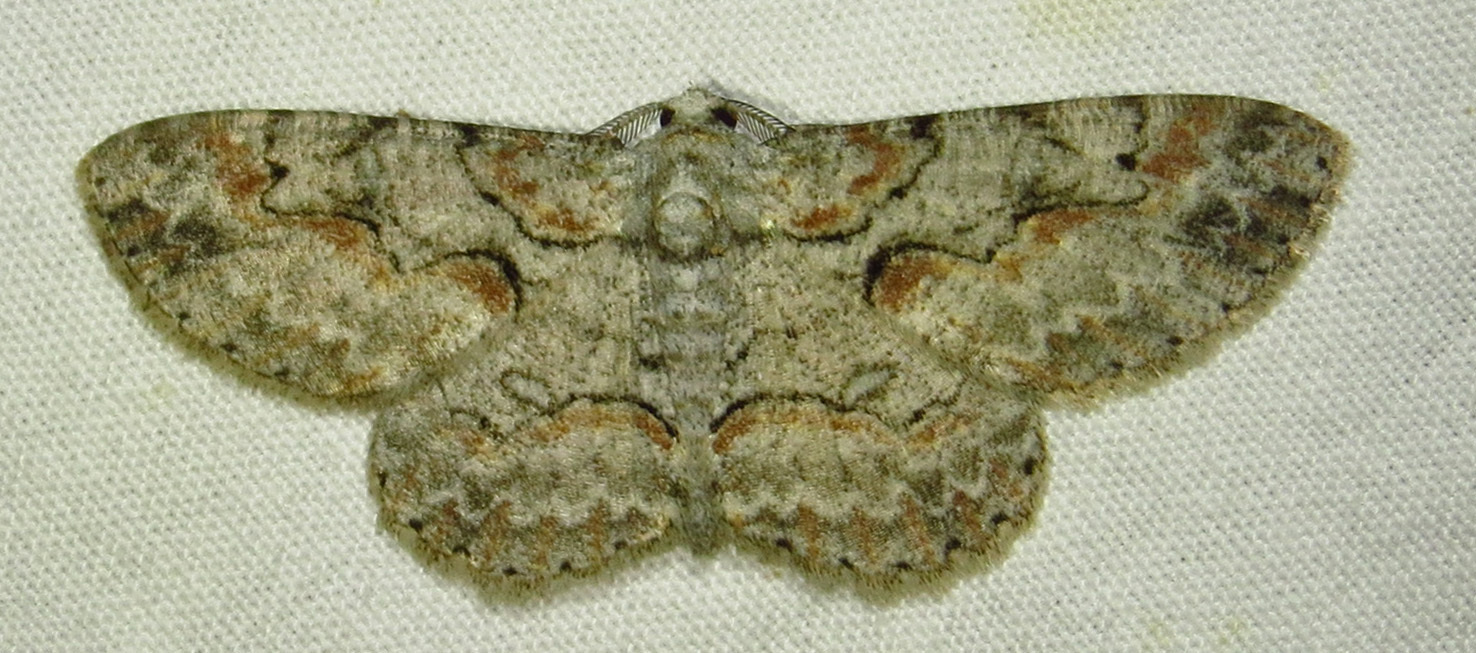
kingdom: Animalia
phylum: Arthropoda
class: Insecta
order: Lepidoptera
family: Geometridae
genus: Iridopsis
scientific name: Iridopsis defectaria
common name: Brown-shaded gray
